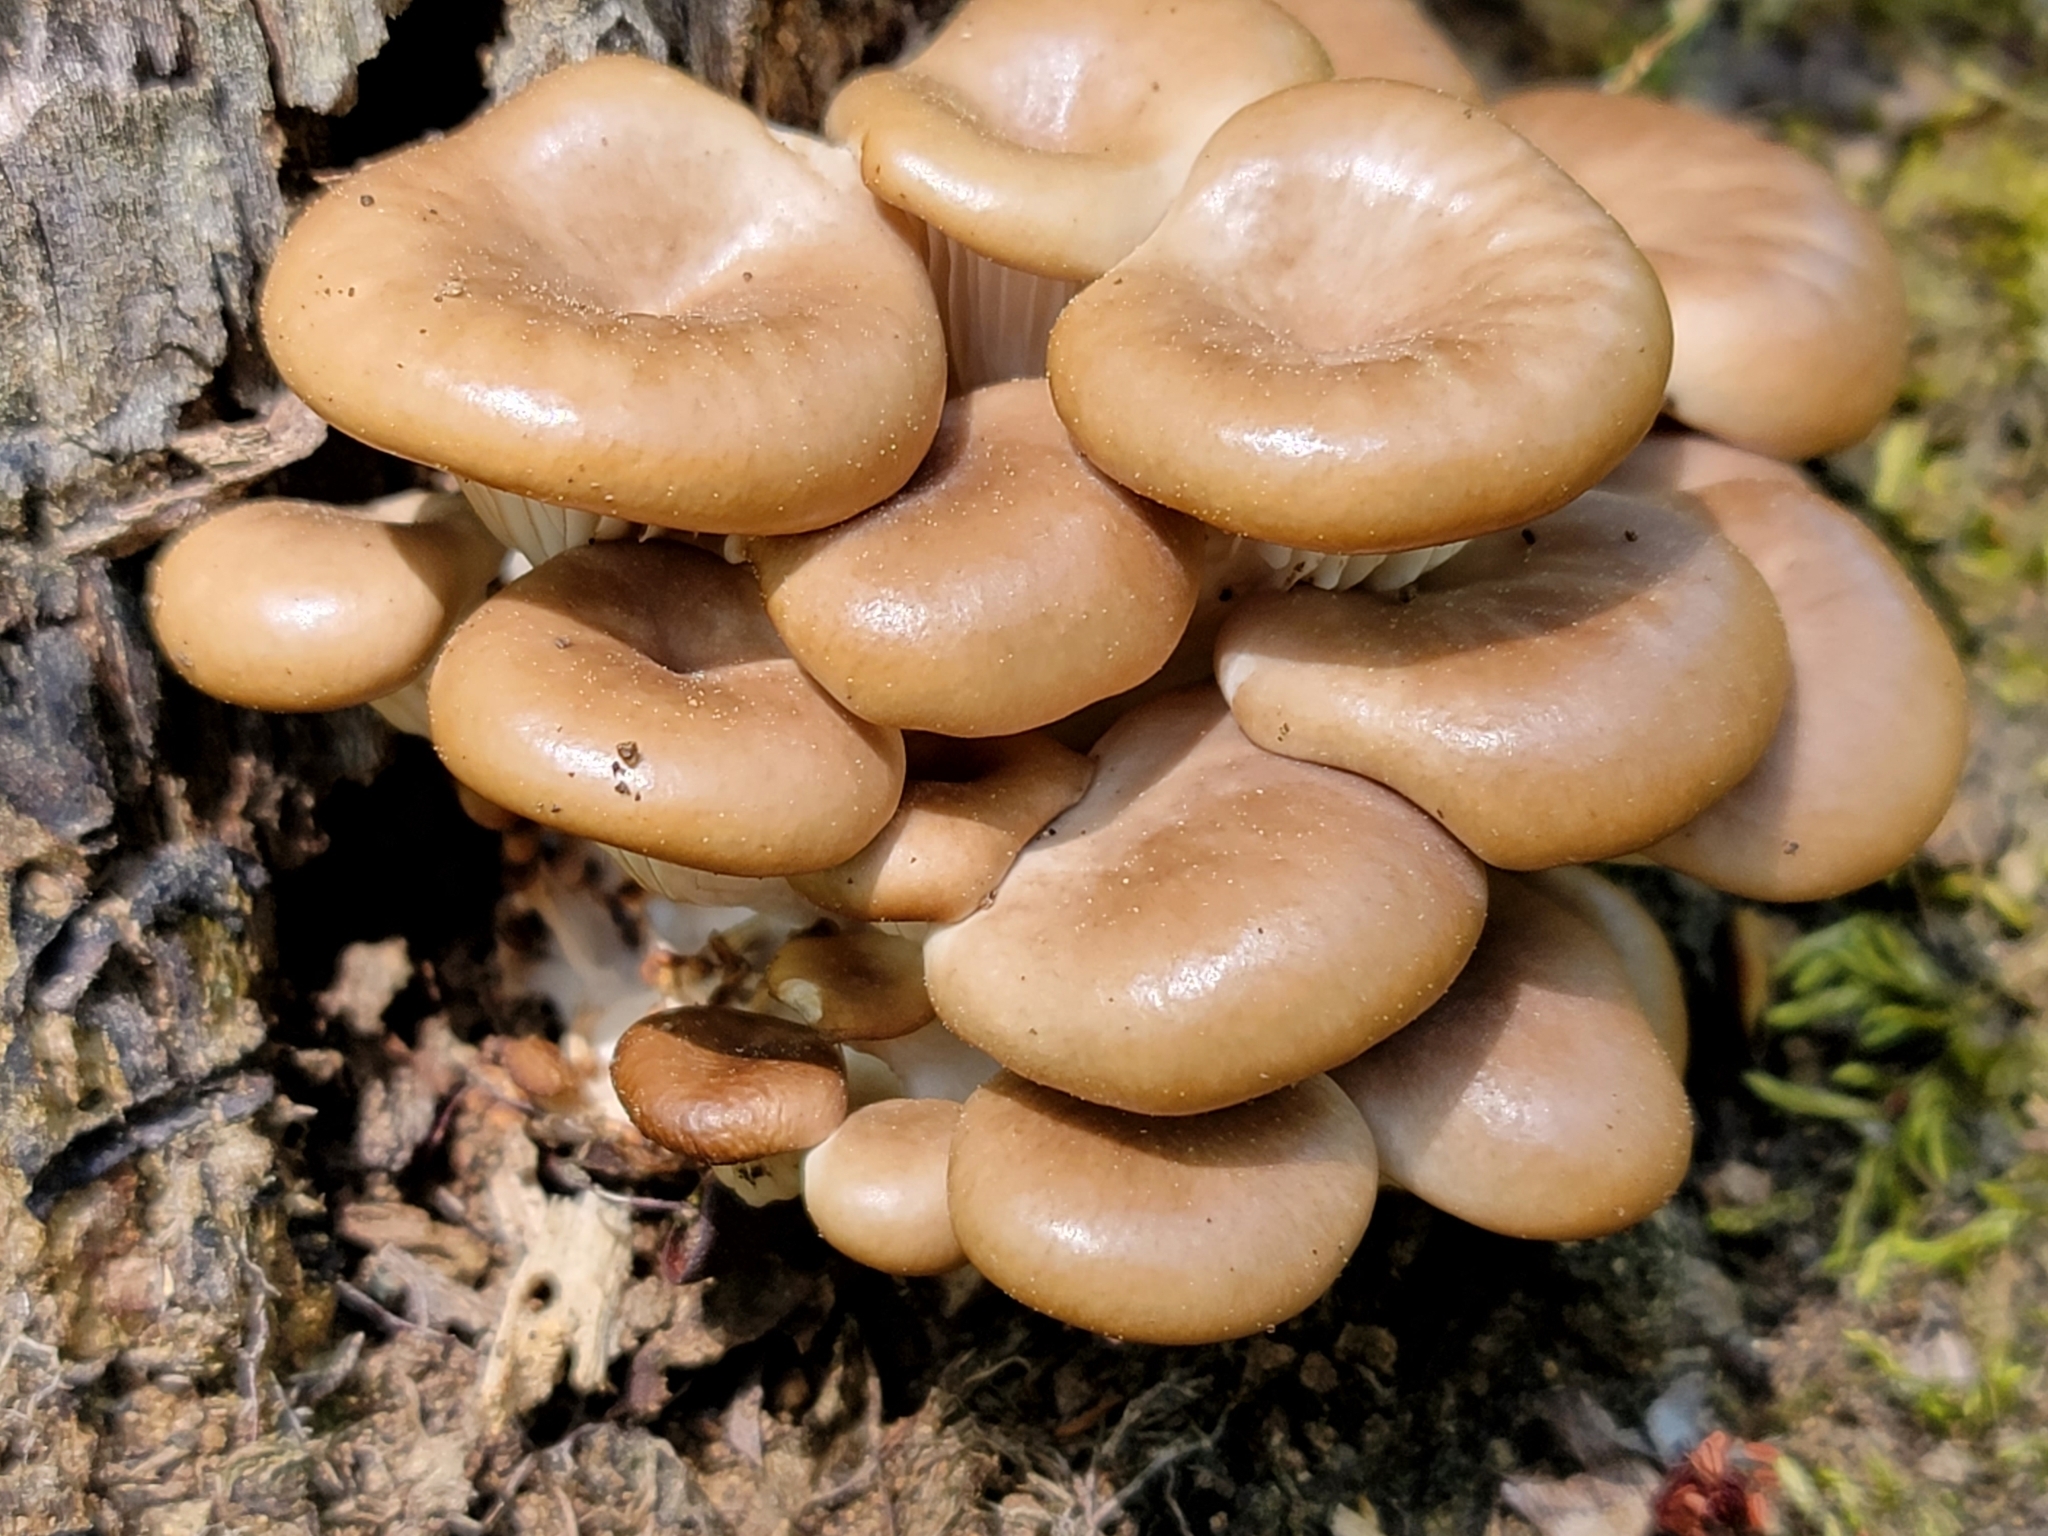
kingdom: Fungi
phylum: Basidiomycota
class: Agaricomycetes
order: Agaricales
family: Pleurotaceae
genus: Pleurotus
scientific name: Pleurotus pulmonarius
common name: Pale oyster
